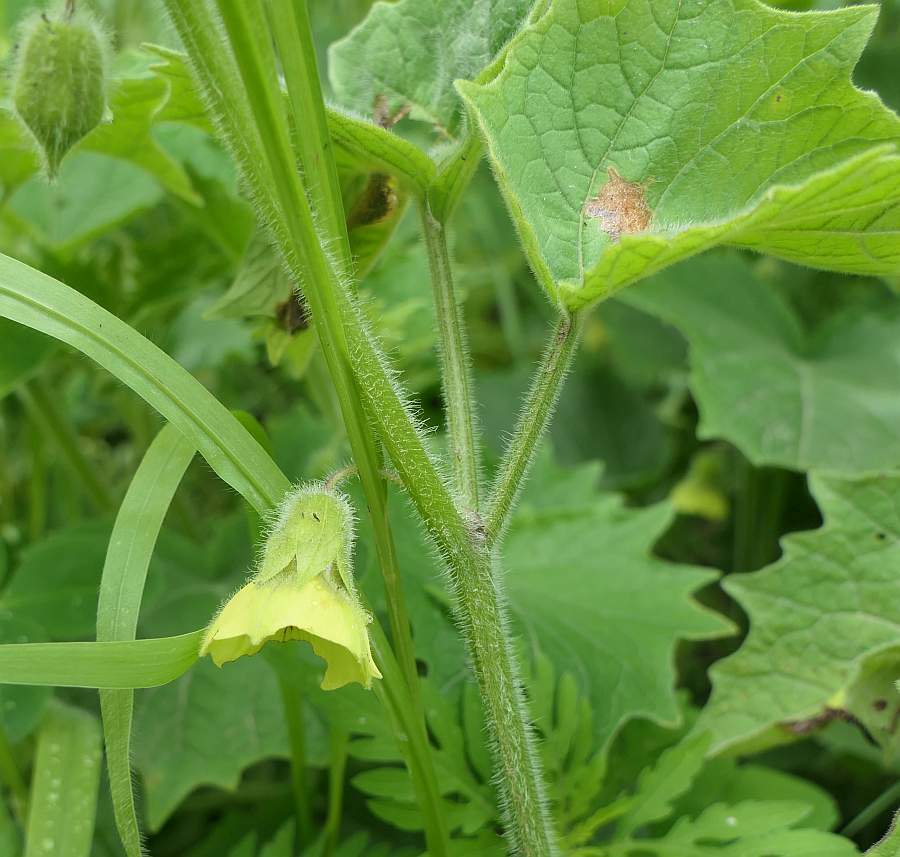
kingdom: Plantae
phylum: Tracheophyta
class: Magnoliopsida
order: Solanales
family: Solanaceae
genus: Physalis
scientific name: Physalis heterophylla
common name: Clammy ground-cherry
